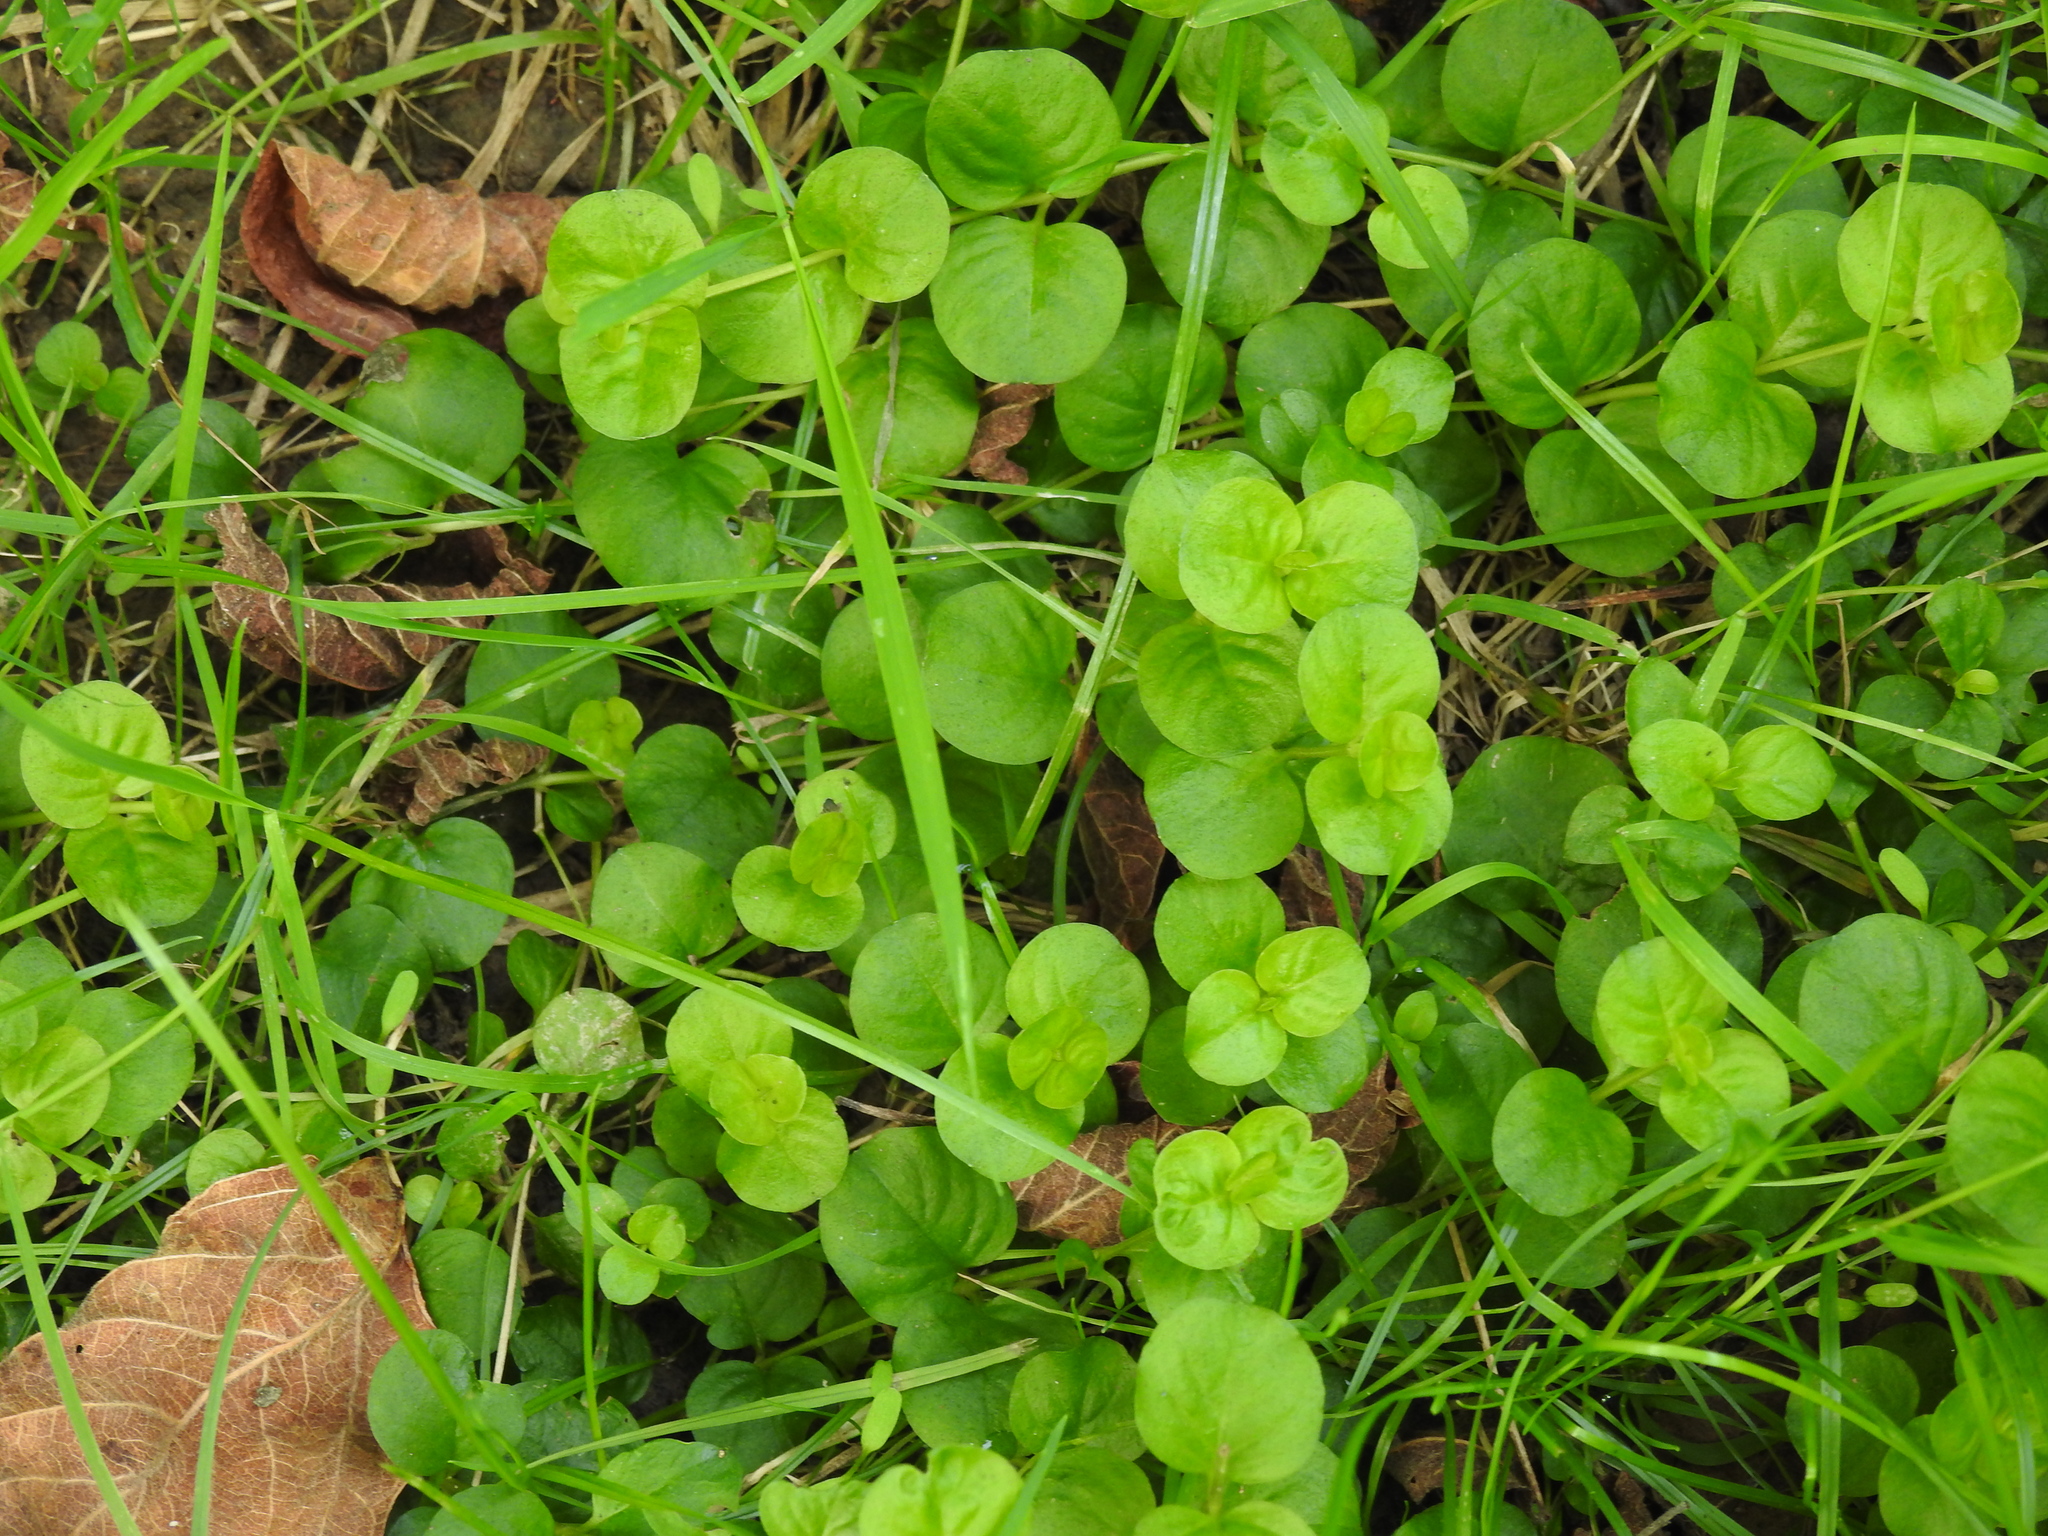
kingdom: Plantae
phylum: Tracheophyta
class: Magnoliopsida
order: Ericales
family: Primulaceae
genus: Lysimachia
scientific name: Lysimachia nummularia
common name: Moneywort
